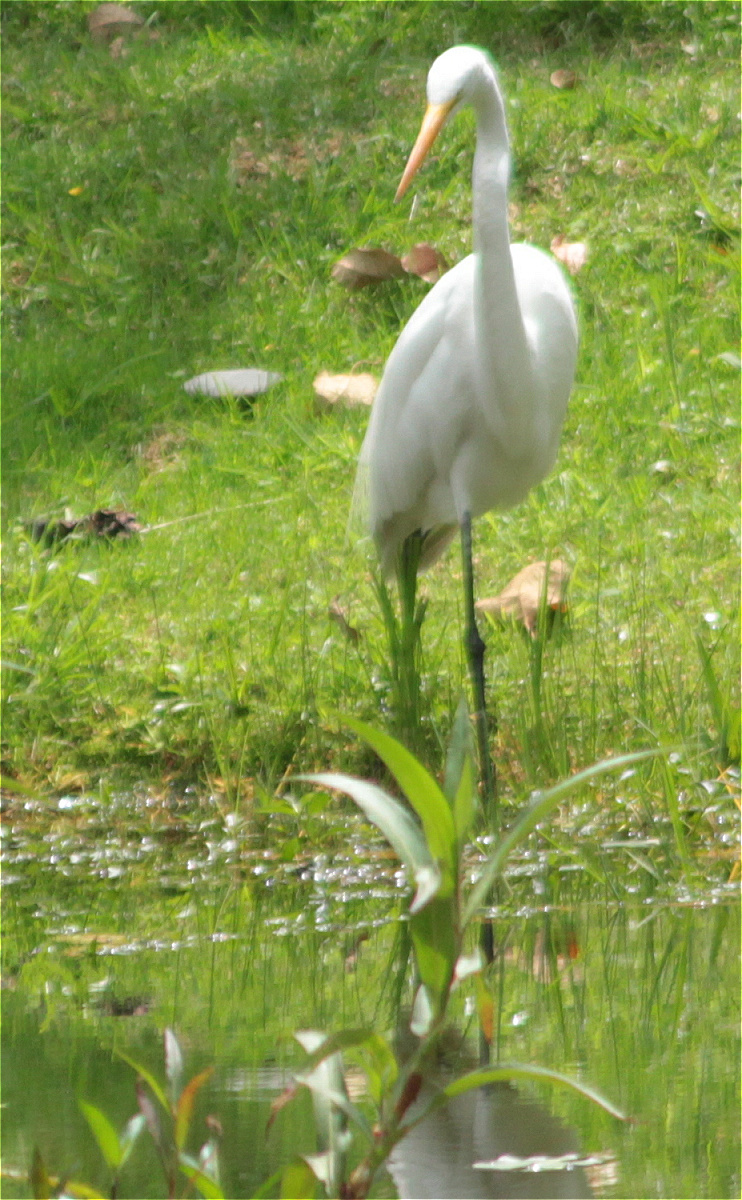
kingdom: Animalia
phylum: Chordata
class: Aves
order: Pelecaniformes
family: Ardeidae
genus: Ardea
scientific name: Ardea alba
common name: Great egret
